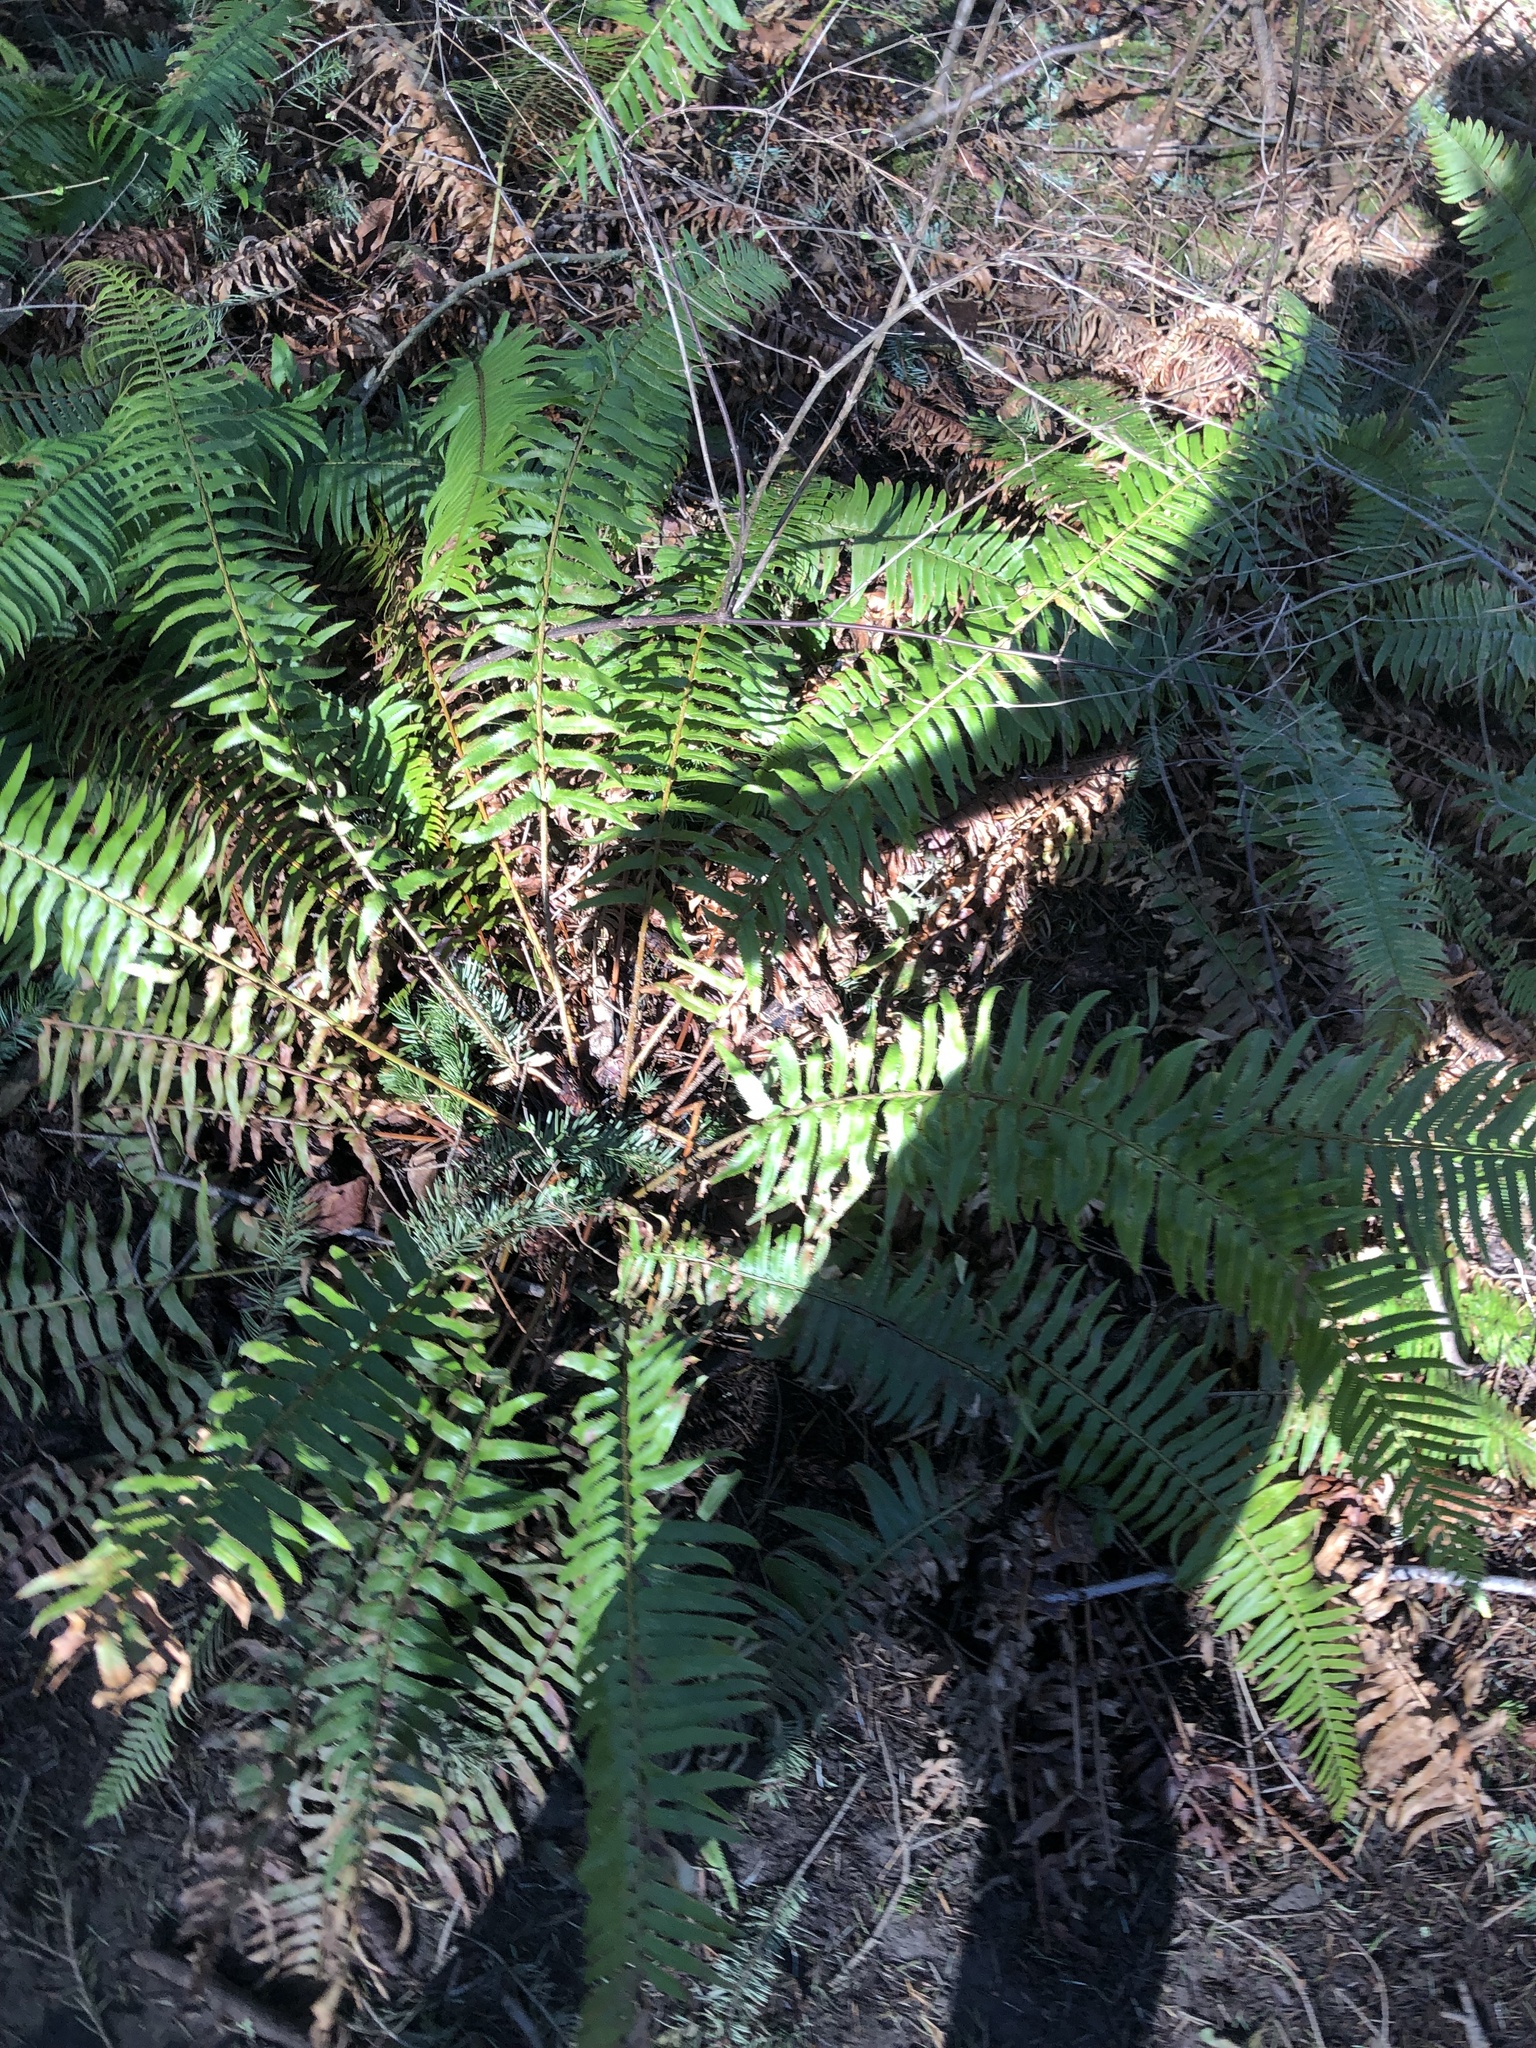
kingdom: Plantae
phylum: Tracheophyta
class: Polypodiopsida
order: Polypodiales
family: Dryopteridaceae
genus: Polystichum
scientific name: Polystichum munitum
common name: Western sword-fern
